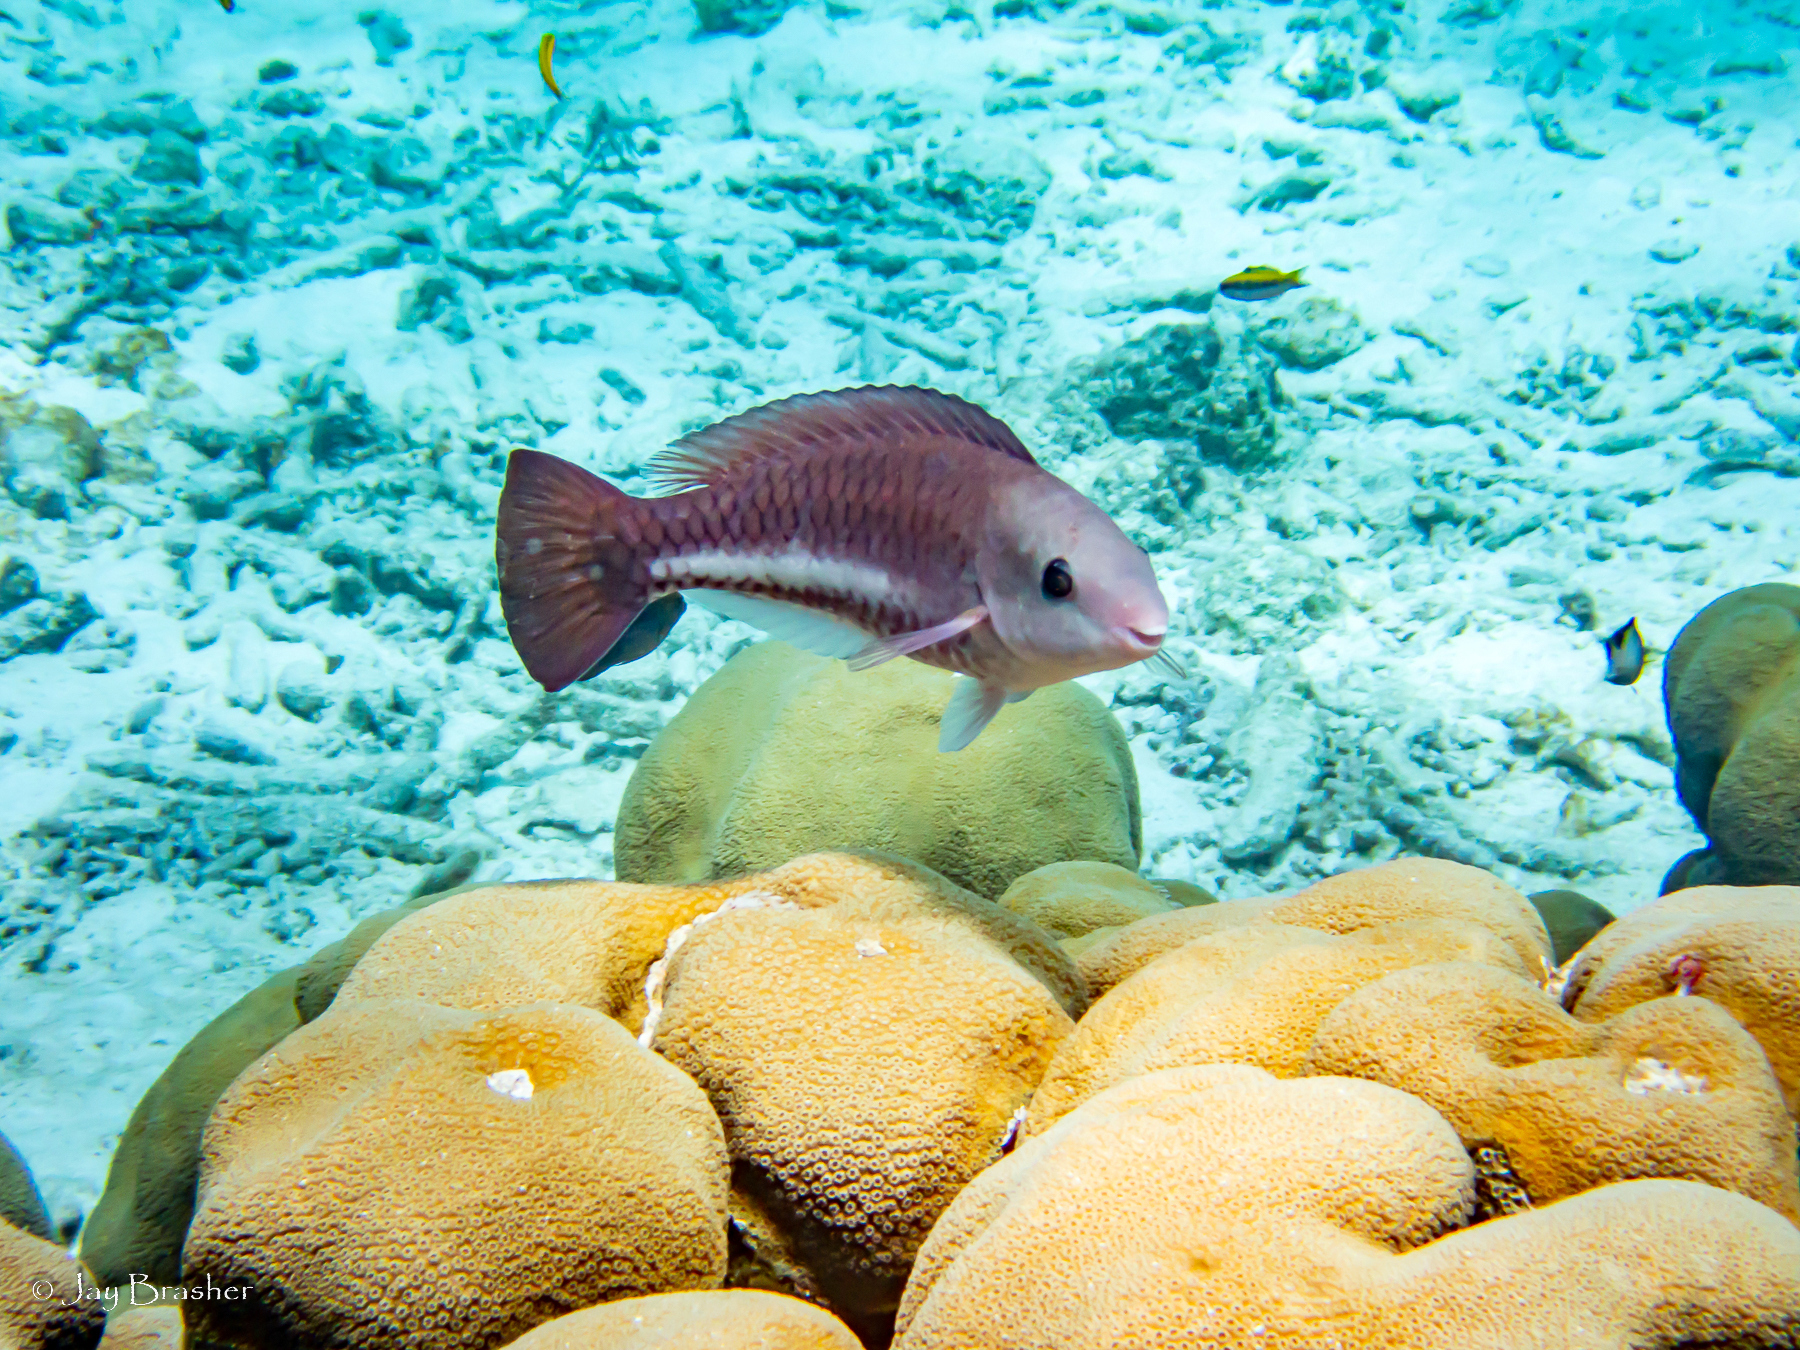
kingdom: Animalia
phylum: Chordata
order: Perciformes
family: Scaridae
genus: Scarus
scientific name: Scarus vetula
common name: Queen parrotfish
